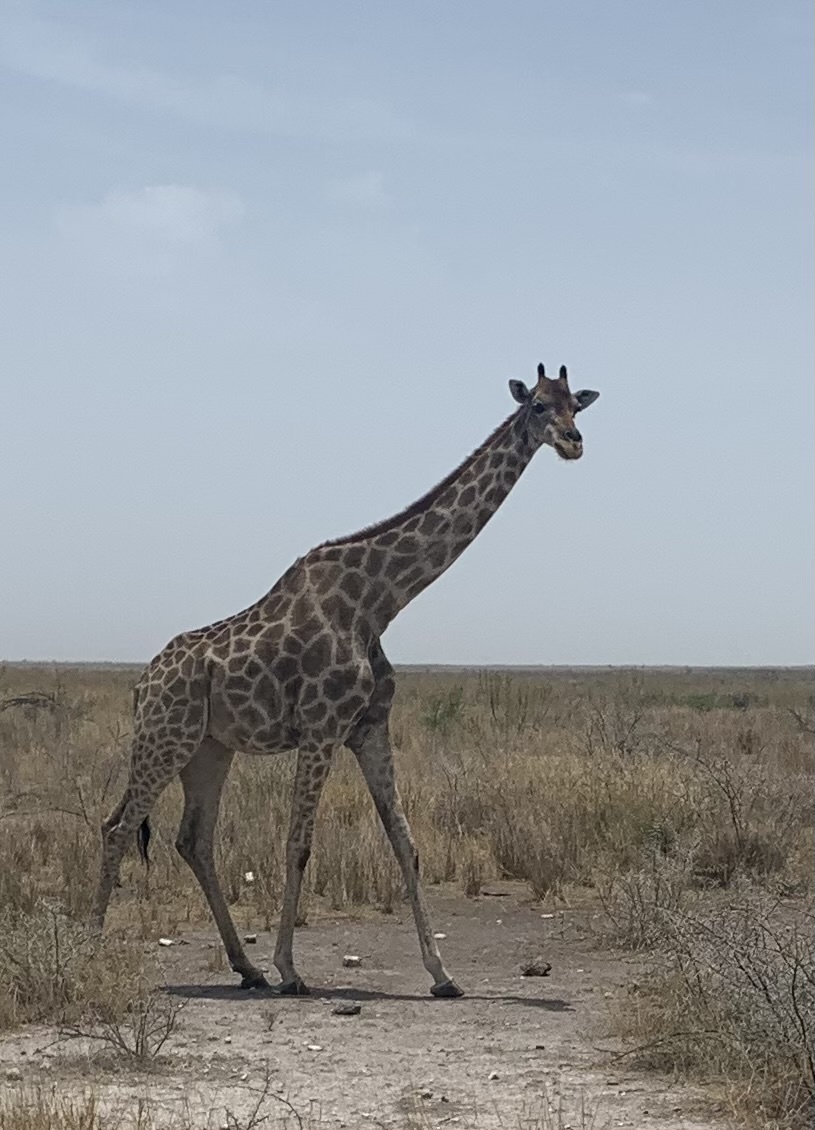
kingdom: Animalia
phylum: Chordata
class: Mammalia
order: Artiodactyla
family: Giraffidae
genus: Giraffa
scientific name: Giraffa giraffa
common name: Southern giraffe
